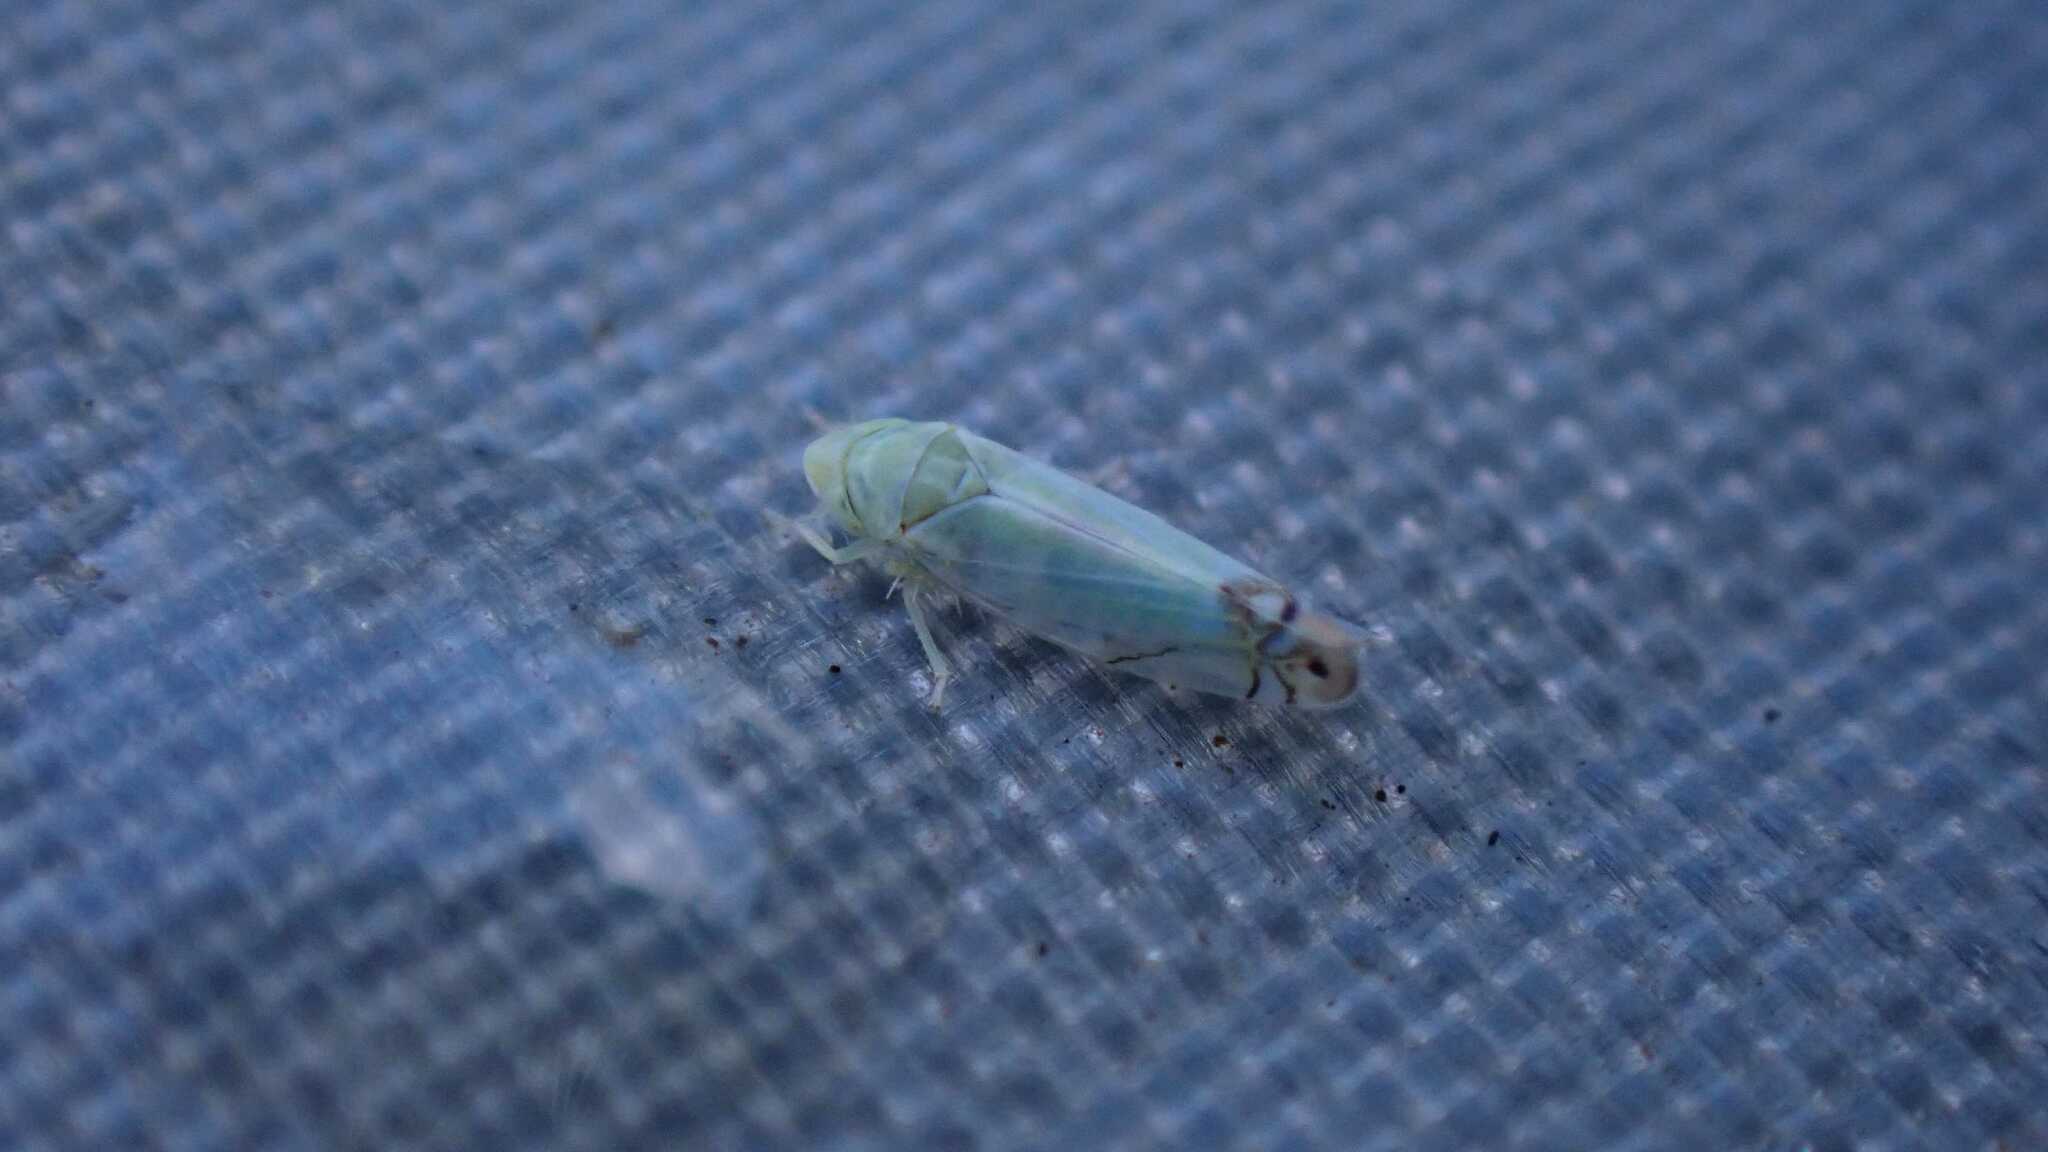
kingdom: Animalia
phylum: Arthropoda
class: Insecta
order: Hemiptera
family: Cicadellidae
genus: Zyginella
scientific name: Zyginella pulchra
